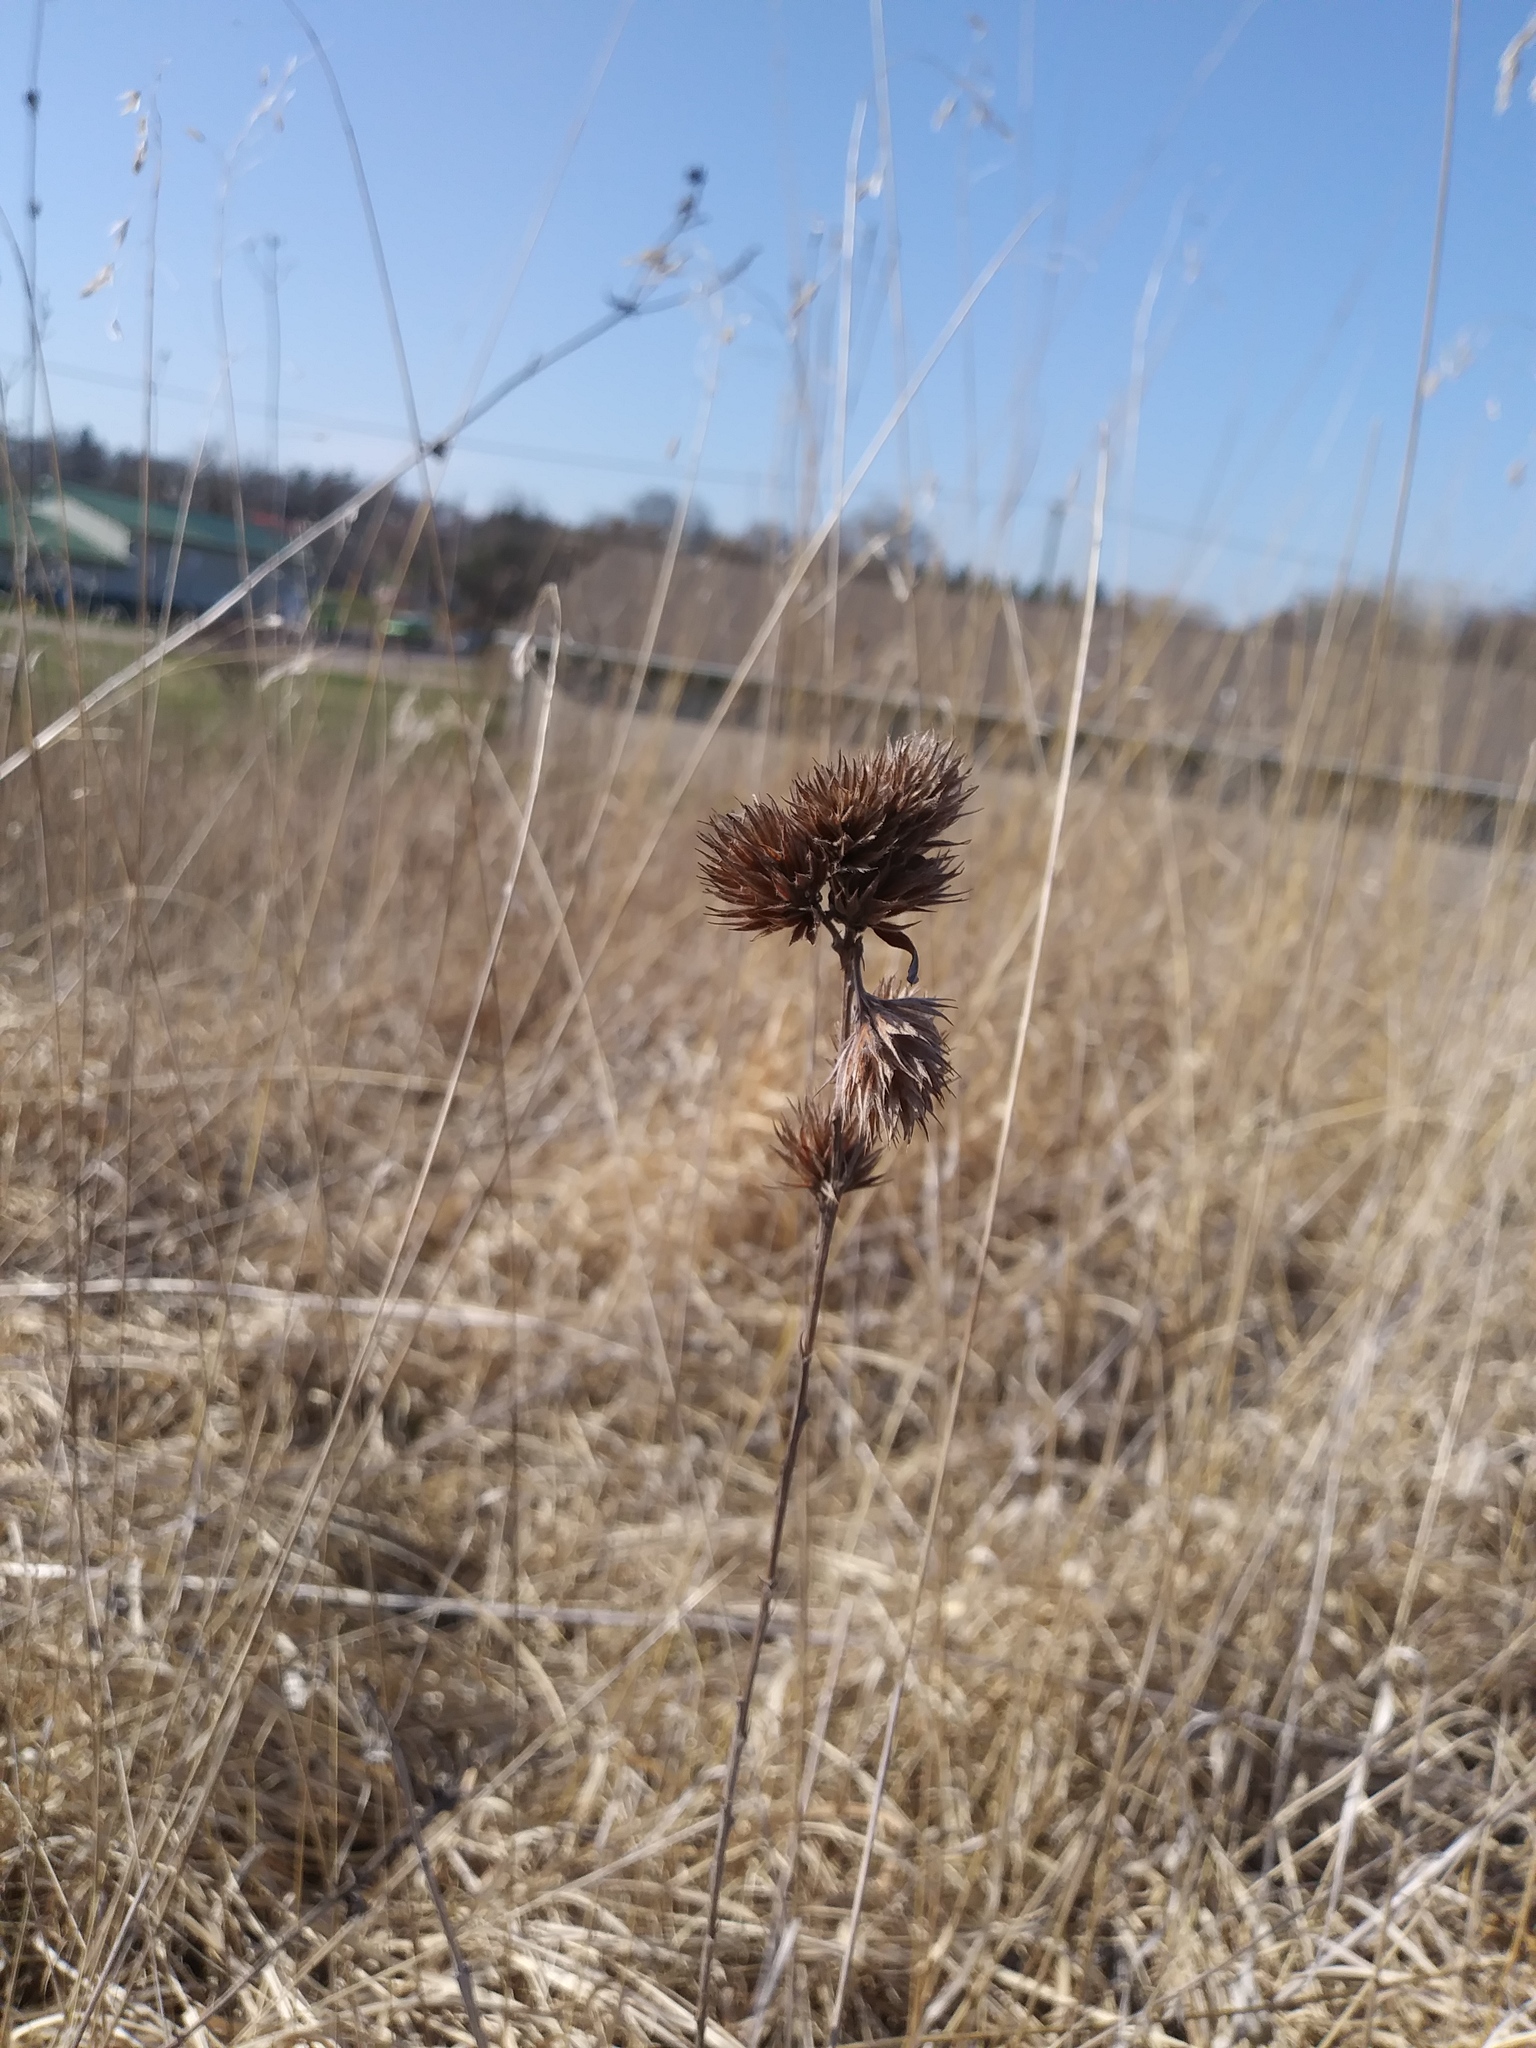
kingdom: Plantae
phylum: Tracheophyta
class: Magnoliopsida
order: Fabales
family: Fabaceae
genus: Lespedeza
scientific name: Lespedeza capitata
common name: Dusty clover
